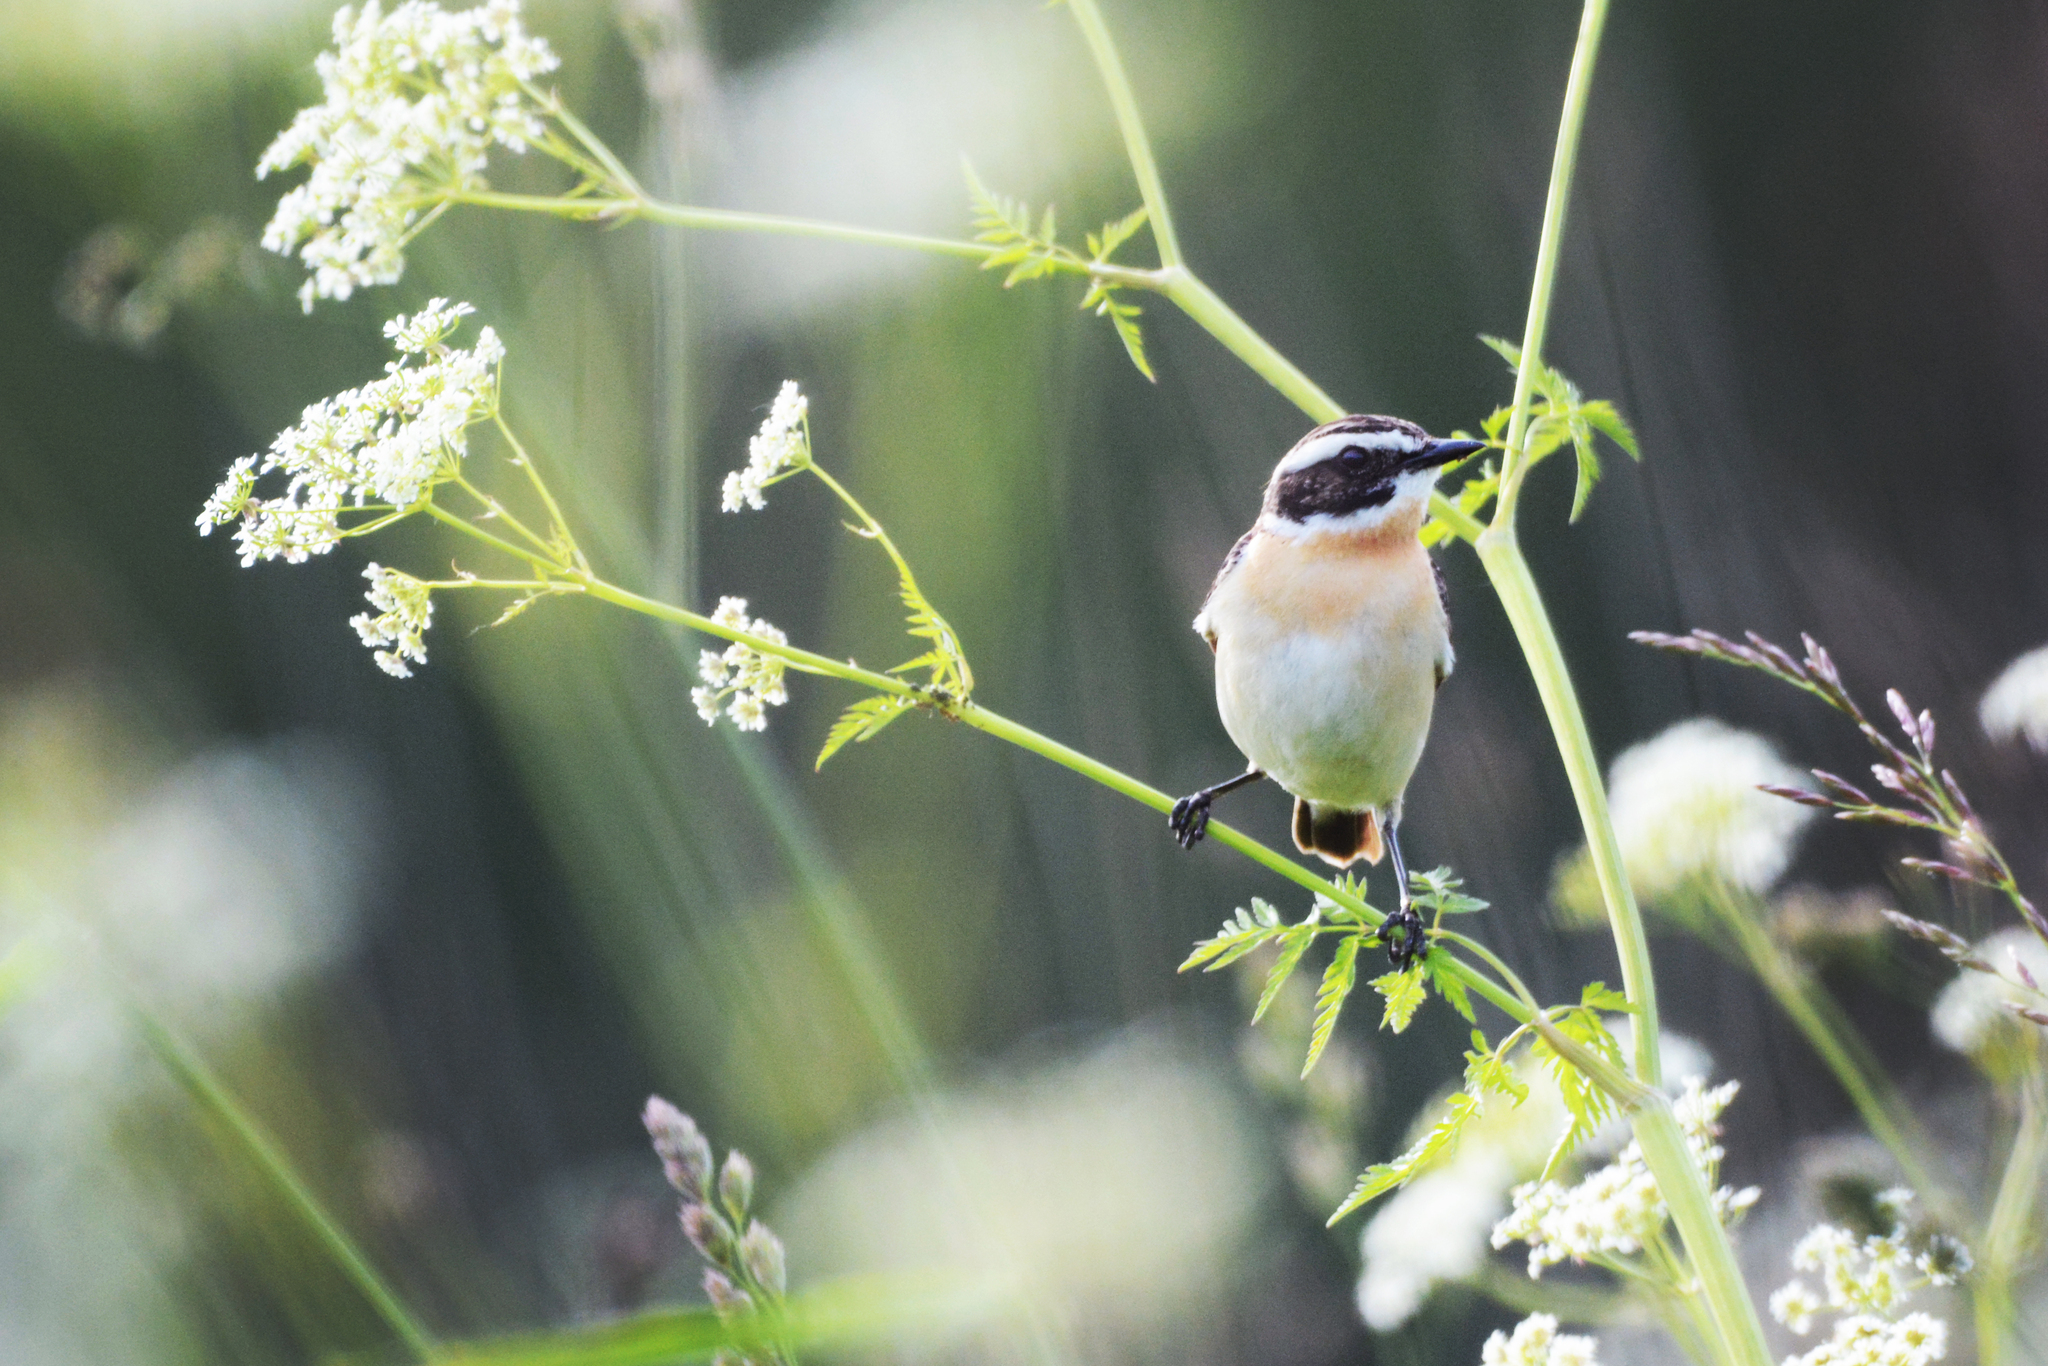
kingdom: Animalia
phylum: Chordata
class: Aves
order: Passeriformes
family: Muscicapidae
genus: Saxicola
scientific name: Saxicola rubetra
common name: Whinchat
